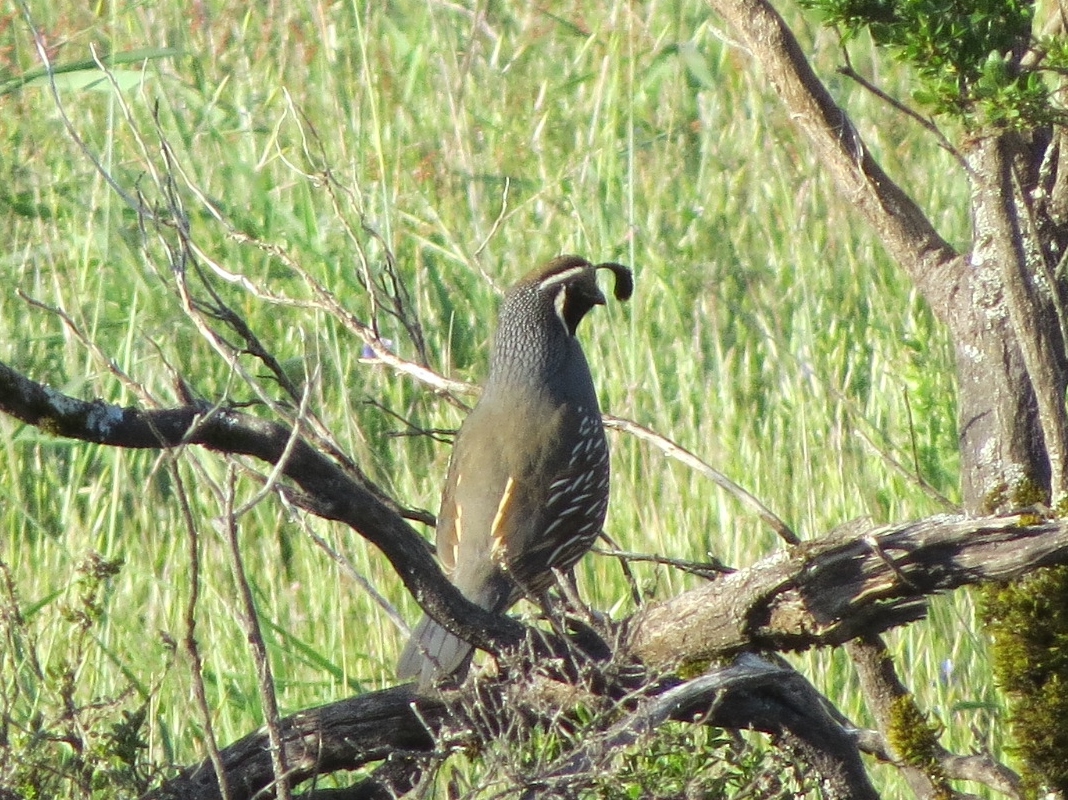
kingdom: Animalia
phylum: Chordata
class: Aves
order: Galliformes
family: Odontophoridae
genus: Callipepla
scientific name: Callipepla californica
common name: California quail
